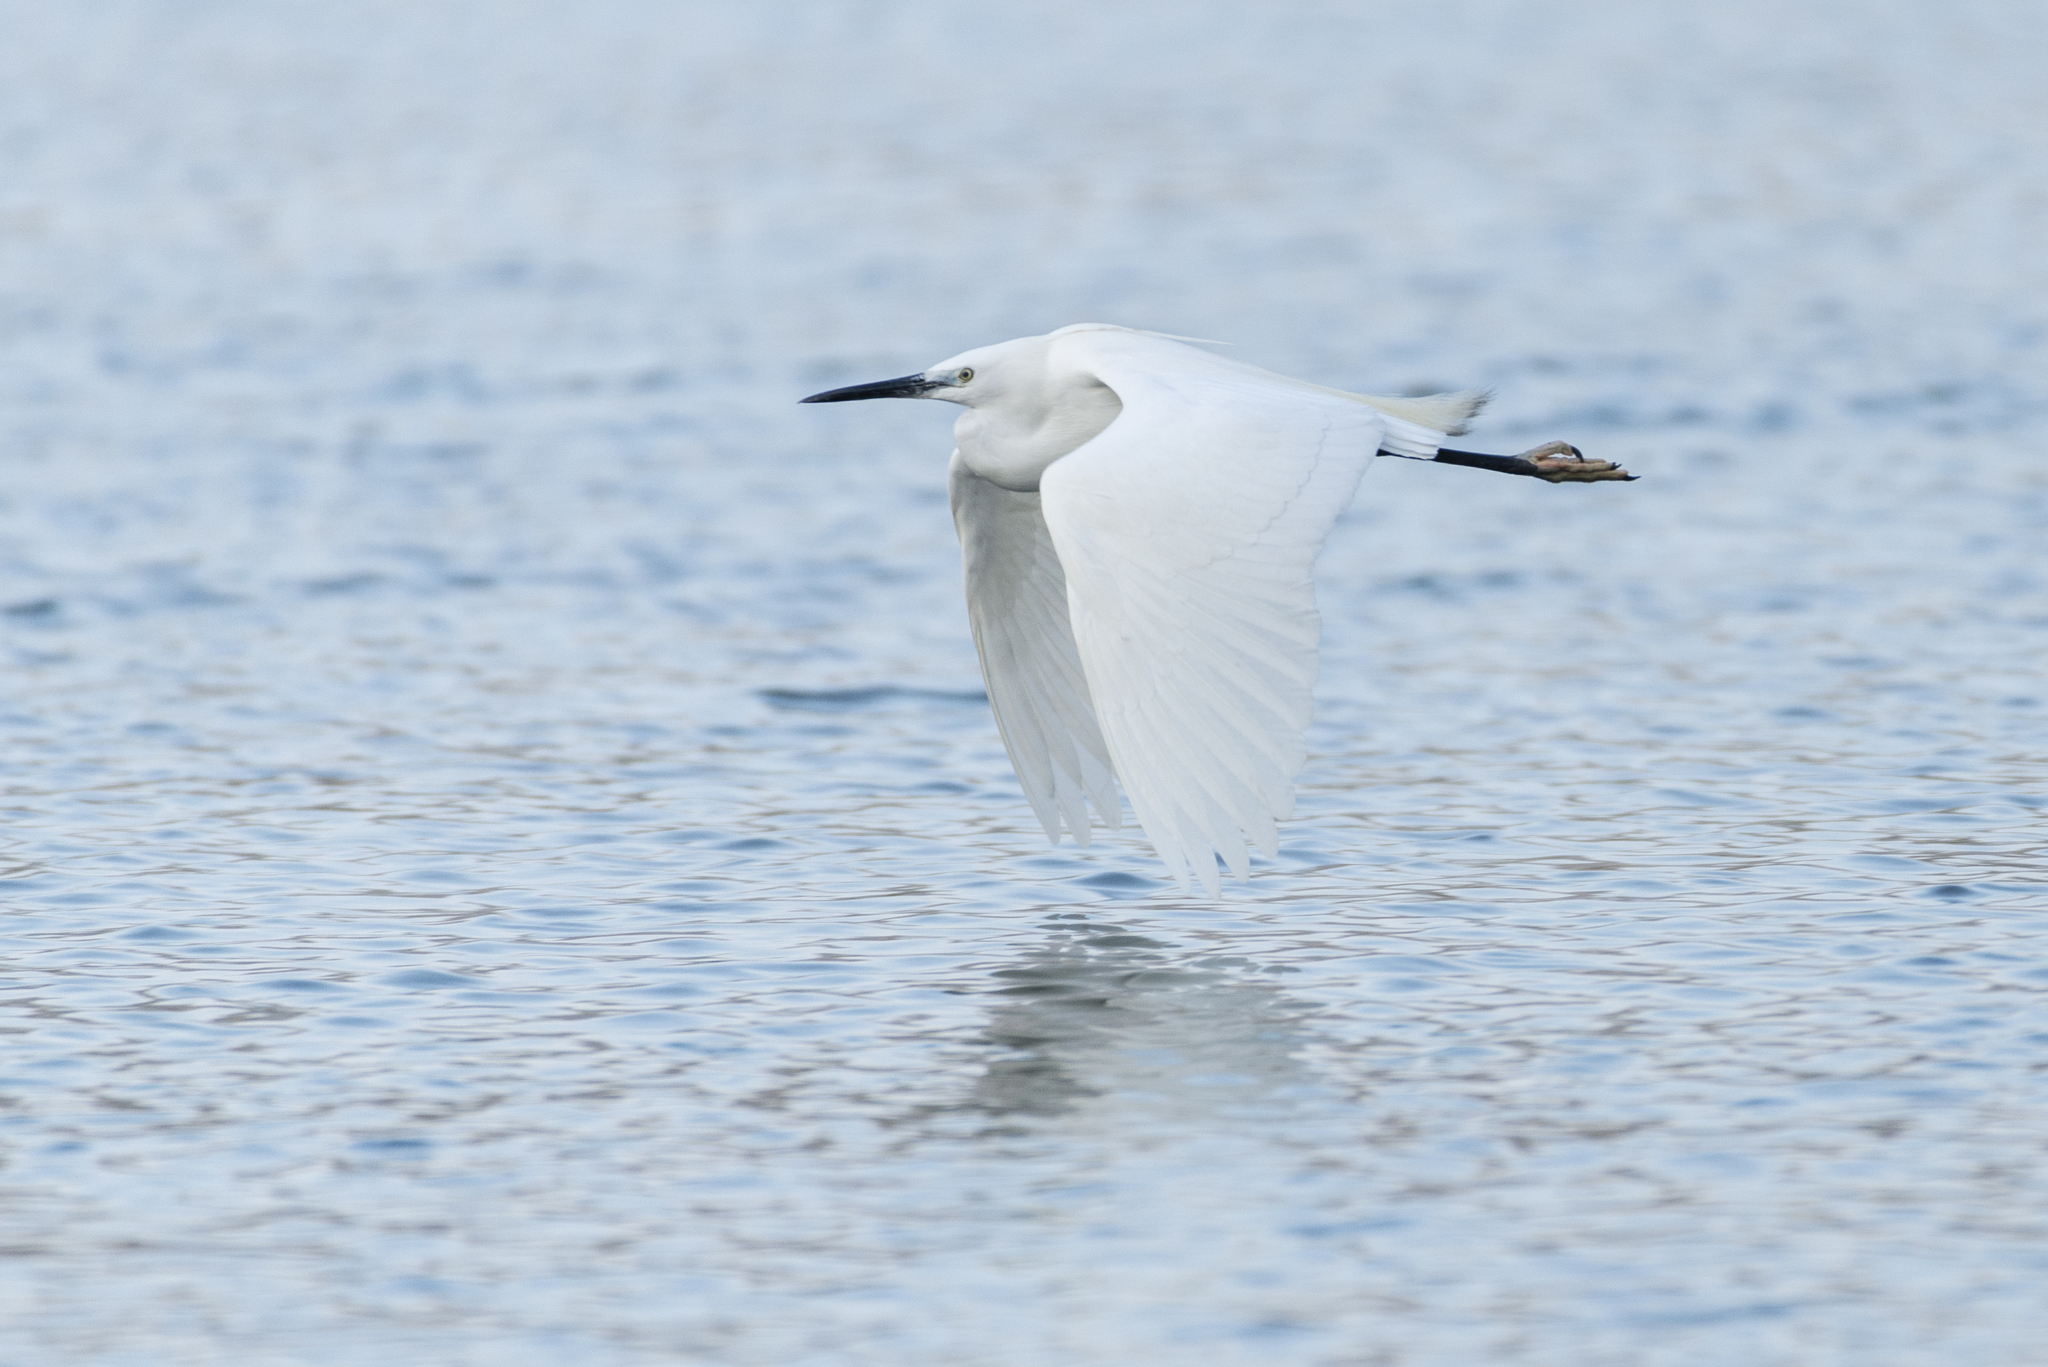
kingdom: Animalia
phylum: Chordata
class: Aves
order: Pelecaniformes
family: Ardeidae
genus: Egretta
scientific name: Egretta garzetta
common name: Little egret
